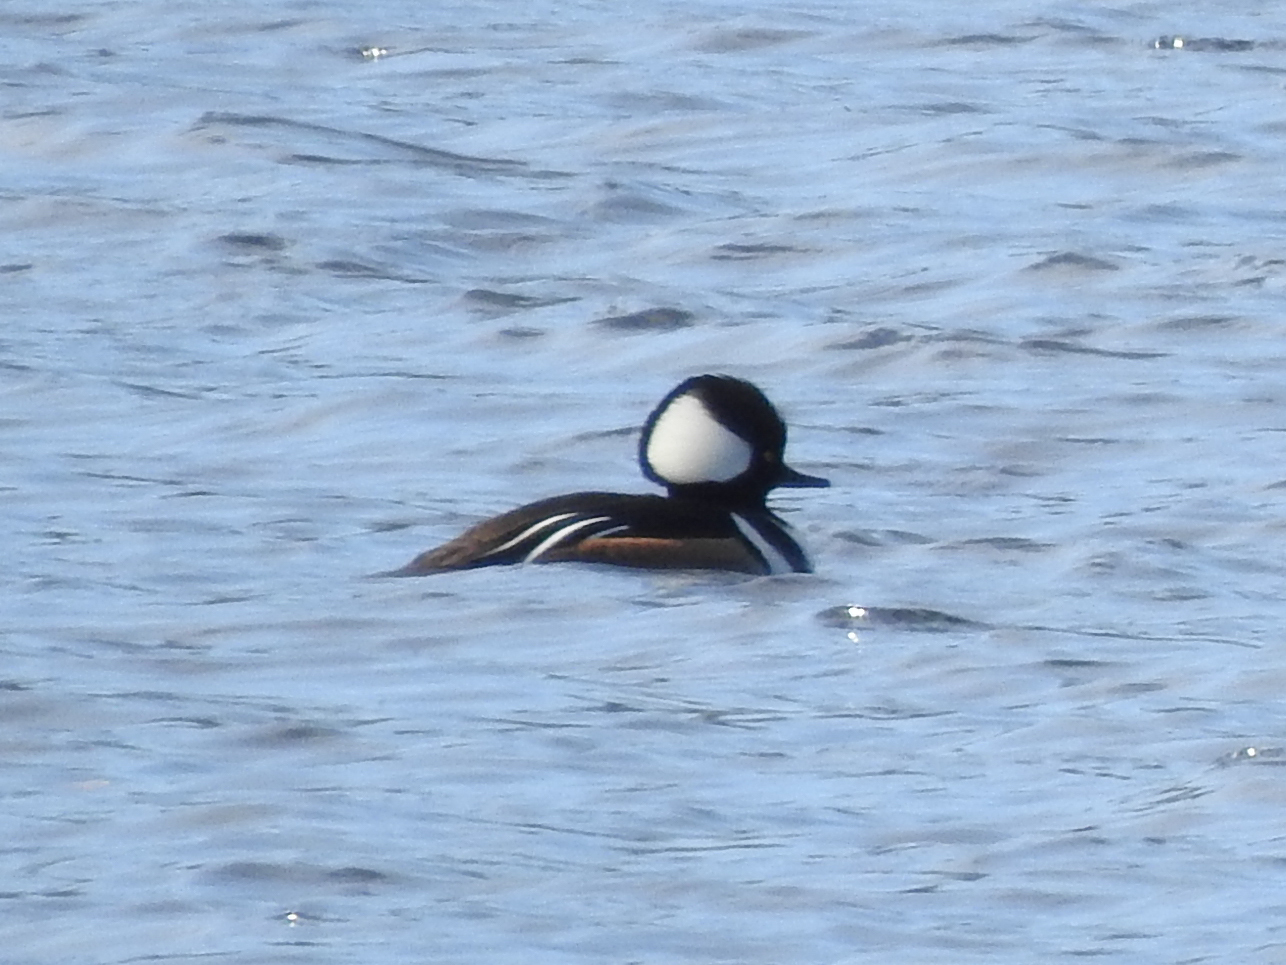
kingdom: Animalia
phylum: Chordata
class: Aves
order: Anseriformes
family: Anatidae
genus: Lophodytes
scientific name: Lophodytes cucullatus
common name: Hooded merganser
